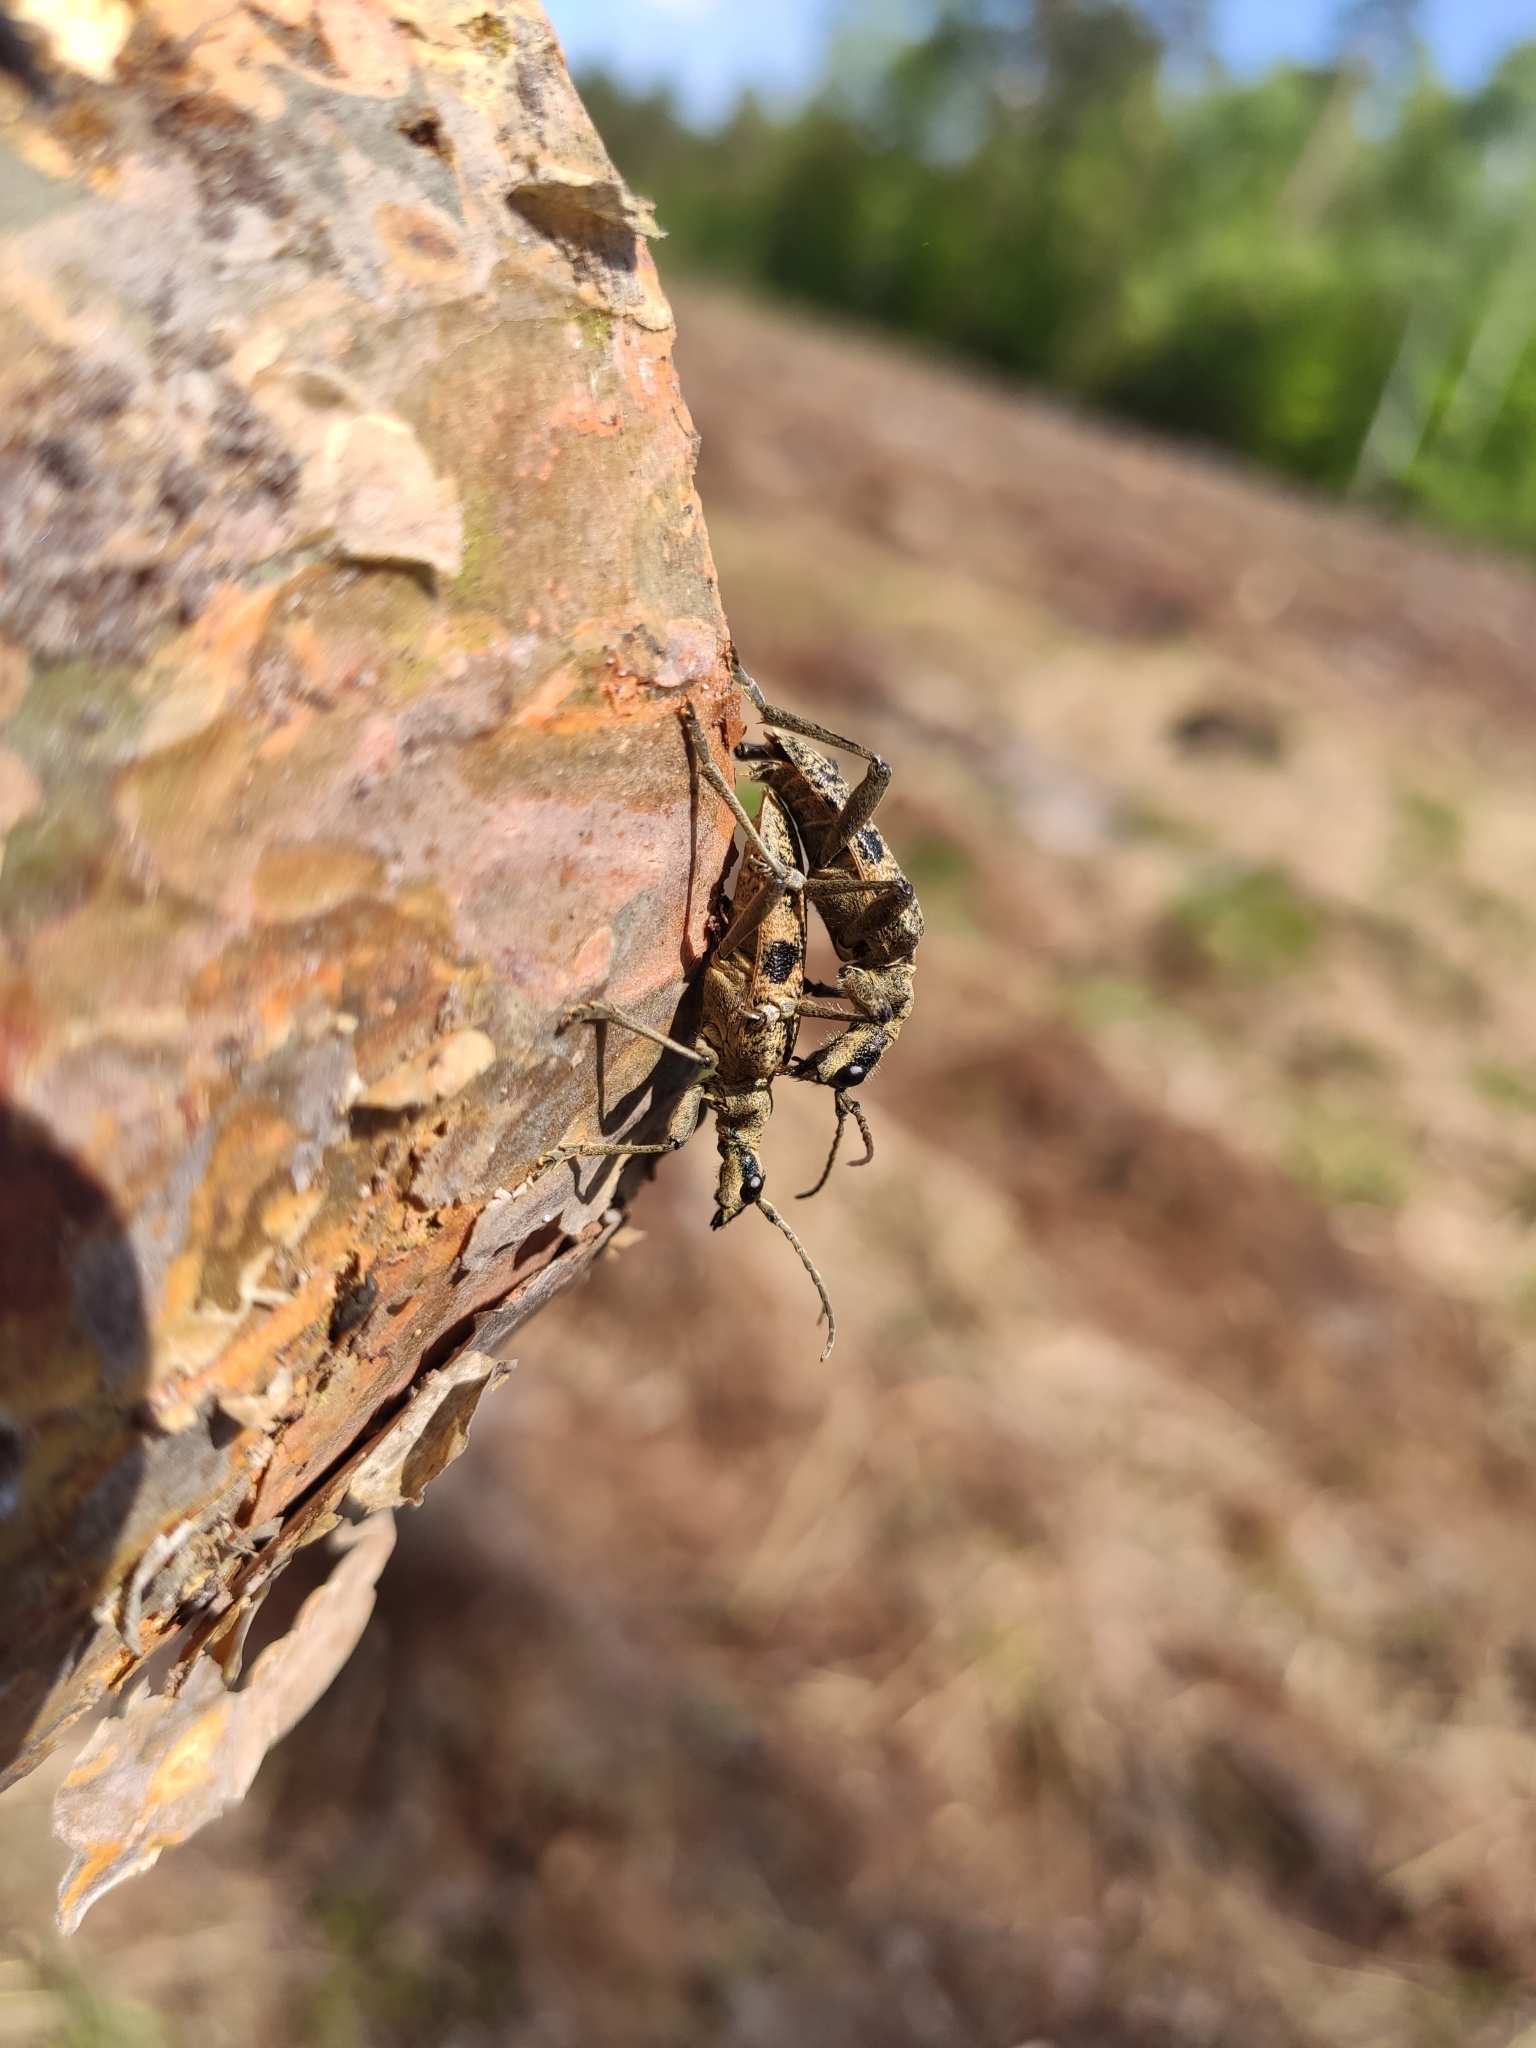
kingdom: Animalia
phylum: Arthropoda
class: Insecta
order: Coleoptera
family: Cerambycidae
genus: Rhagium
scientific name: Rhagium mordax
